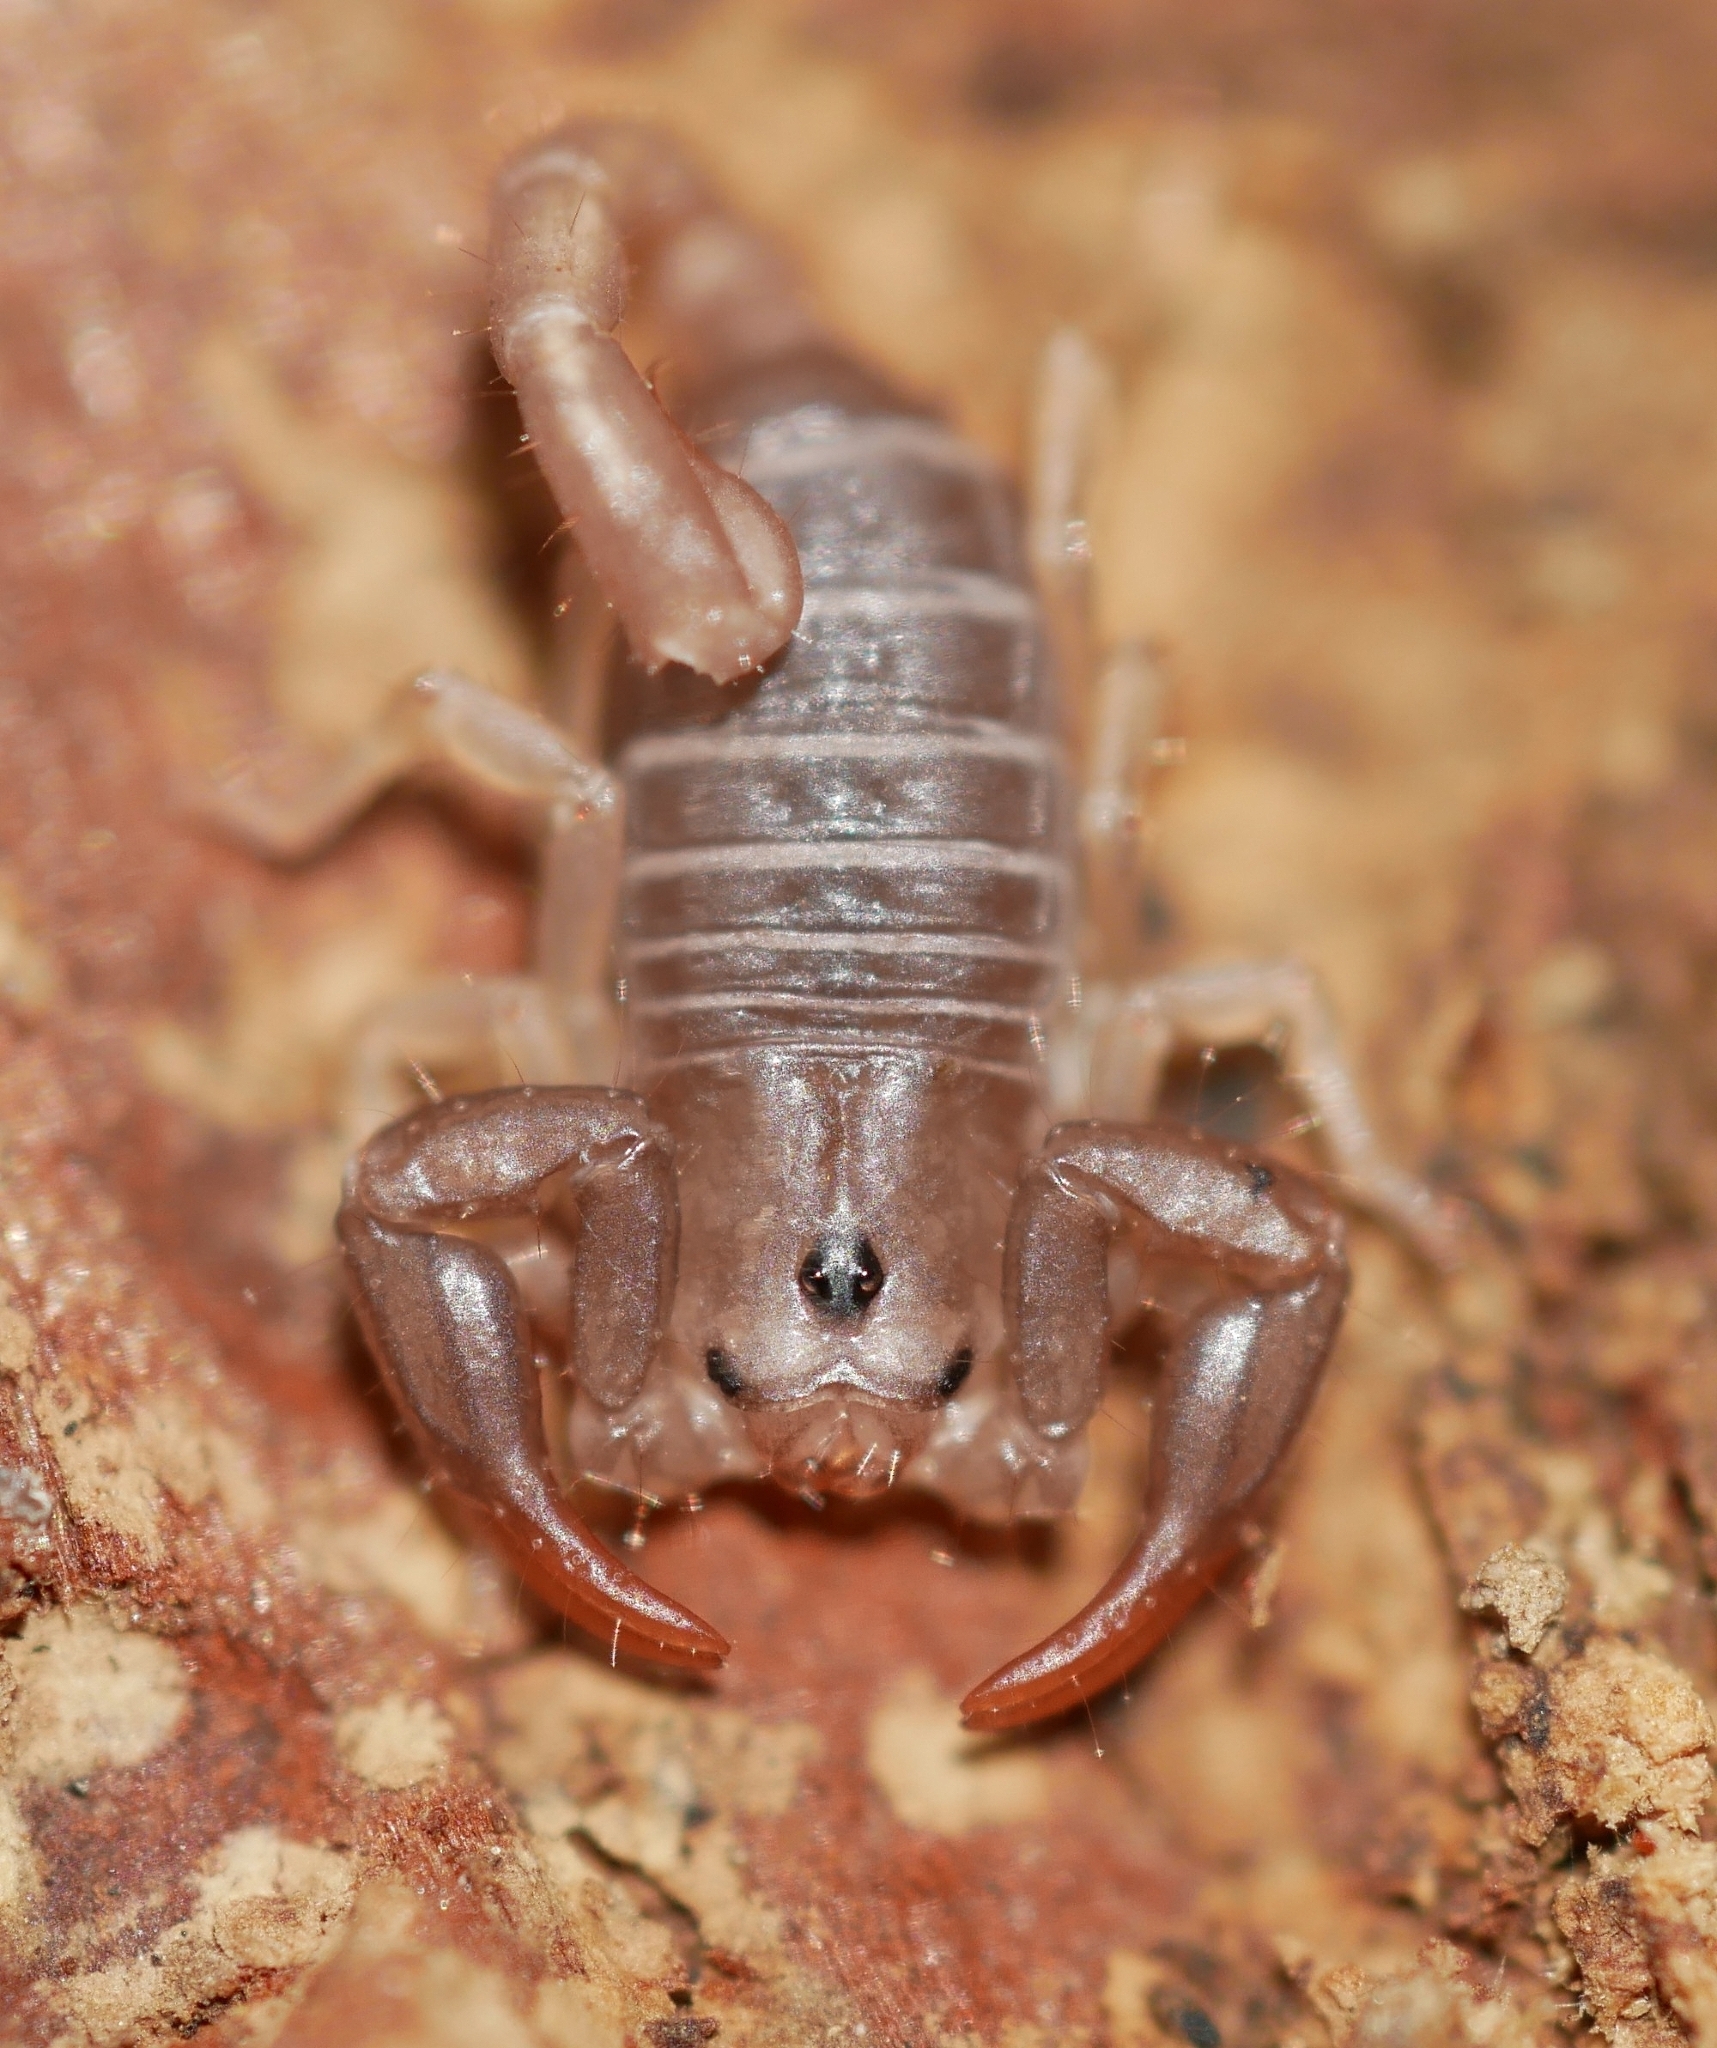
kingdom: Animalia
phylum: Arthropoda
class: Arachnida
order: Scorpiones
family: Chactidae
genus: Uroctonus
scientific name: Uroctonus mordax
